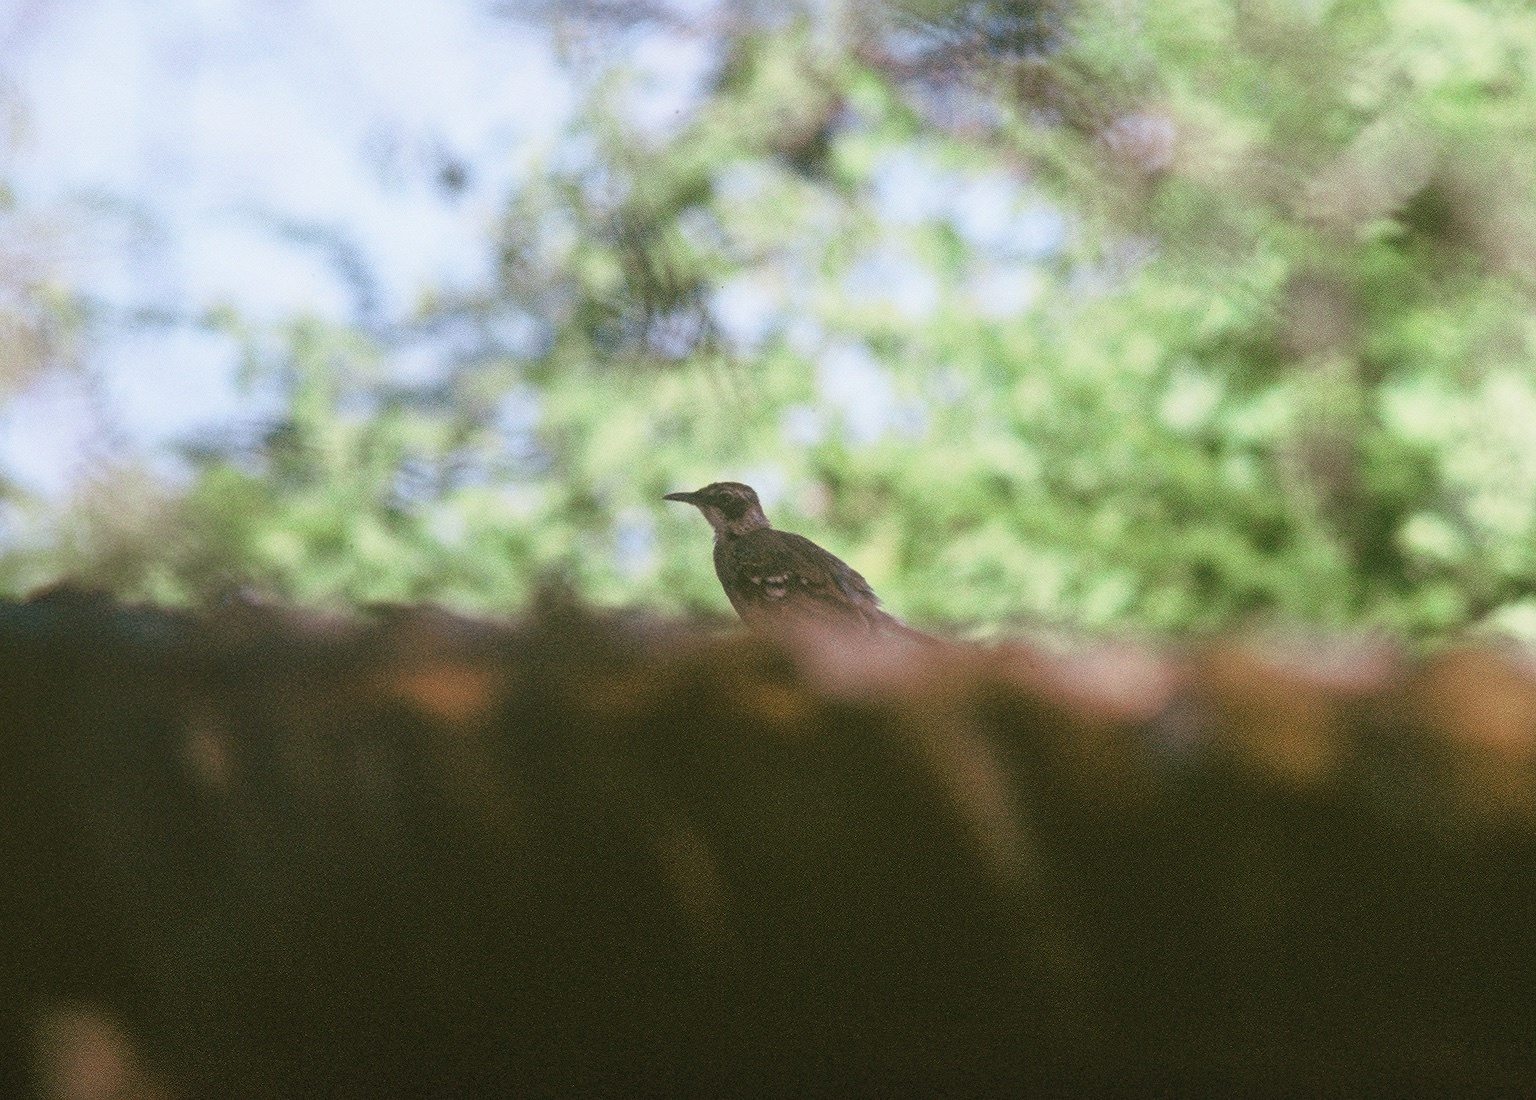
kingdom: Animalia
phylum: Chordata
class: Aves
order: Passeriformes
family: Mimidae
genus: Mimus
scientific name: Mimus parvulus
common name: Galapagos mockingbird
